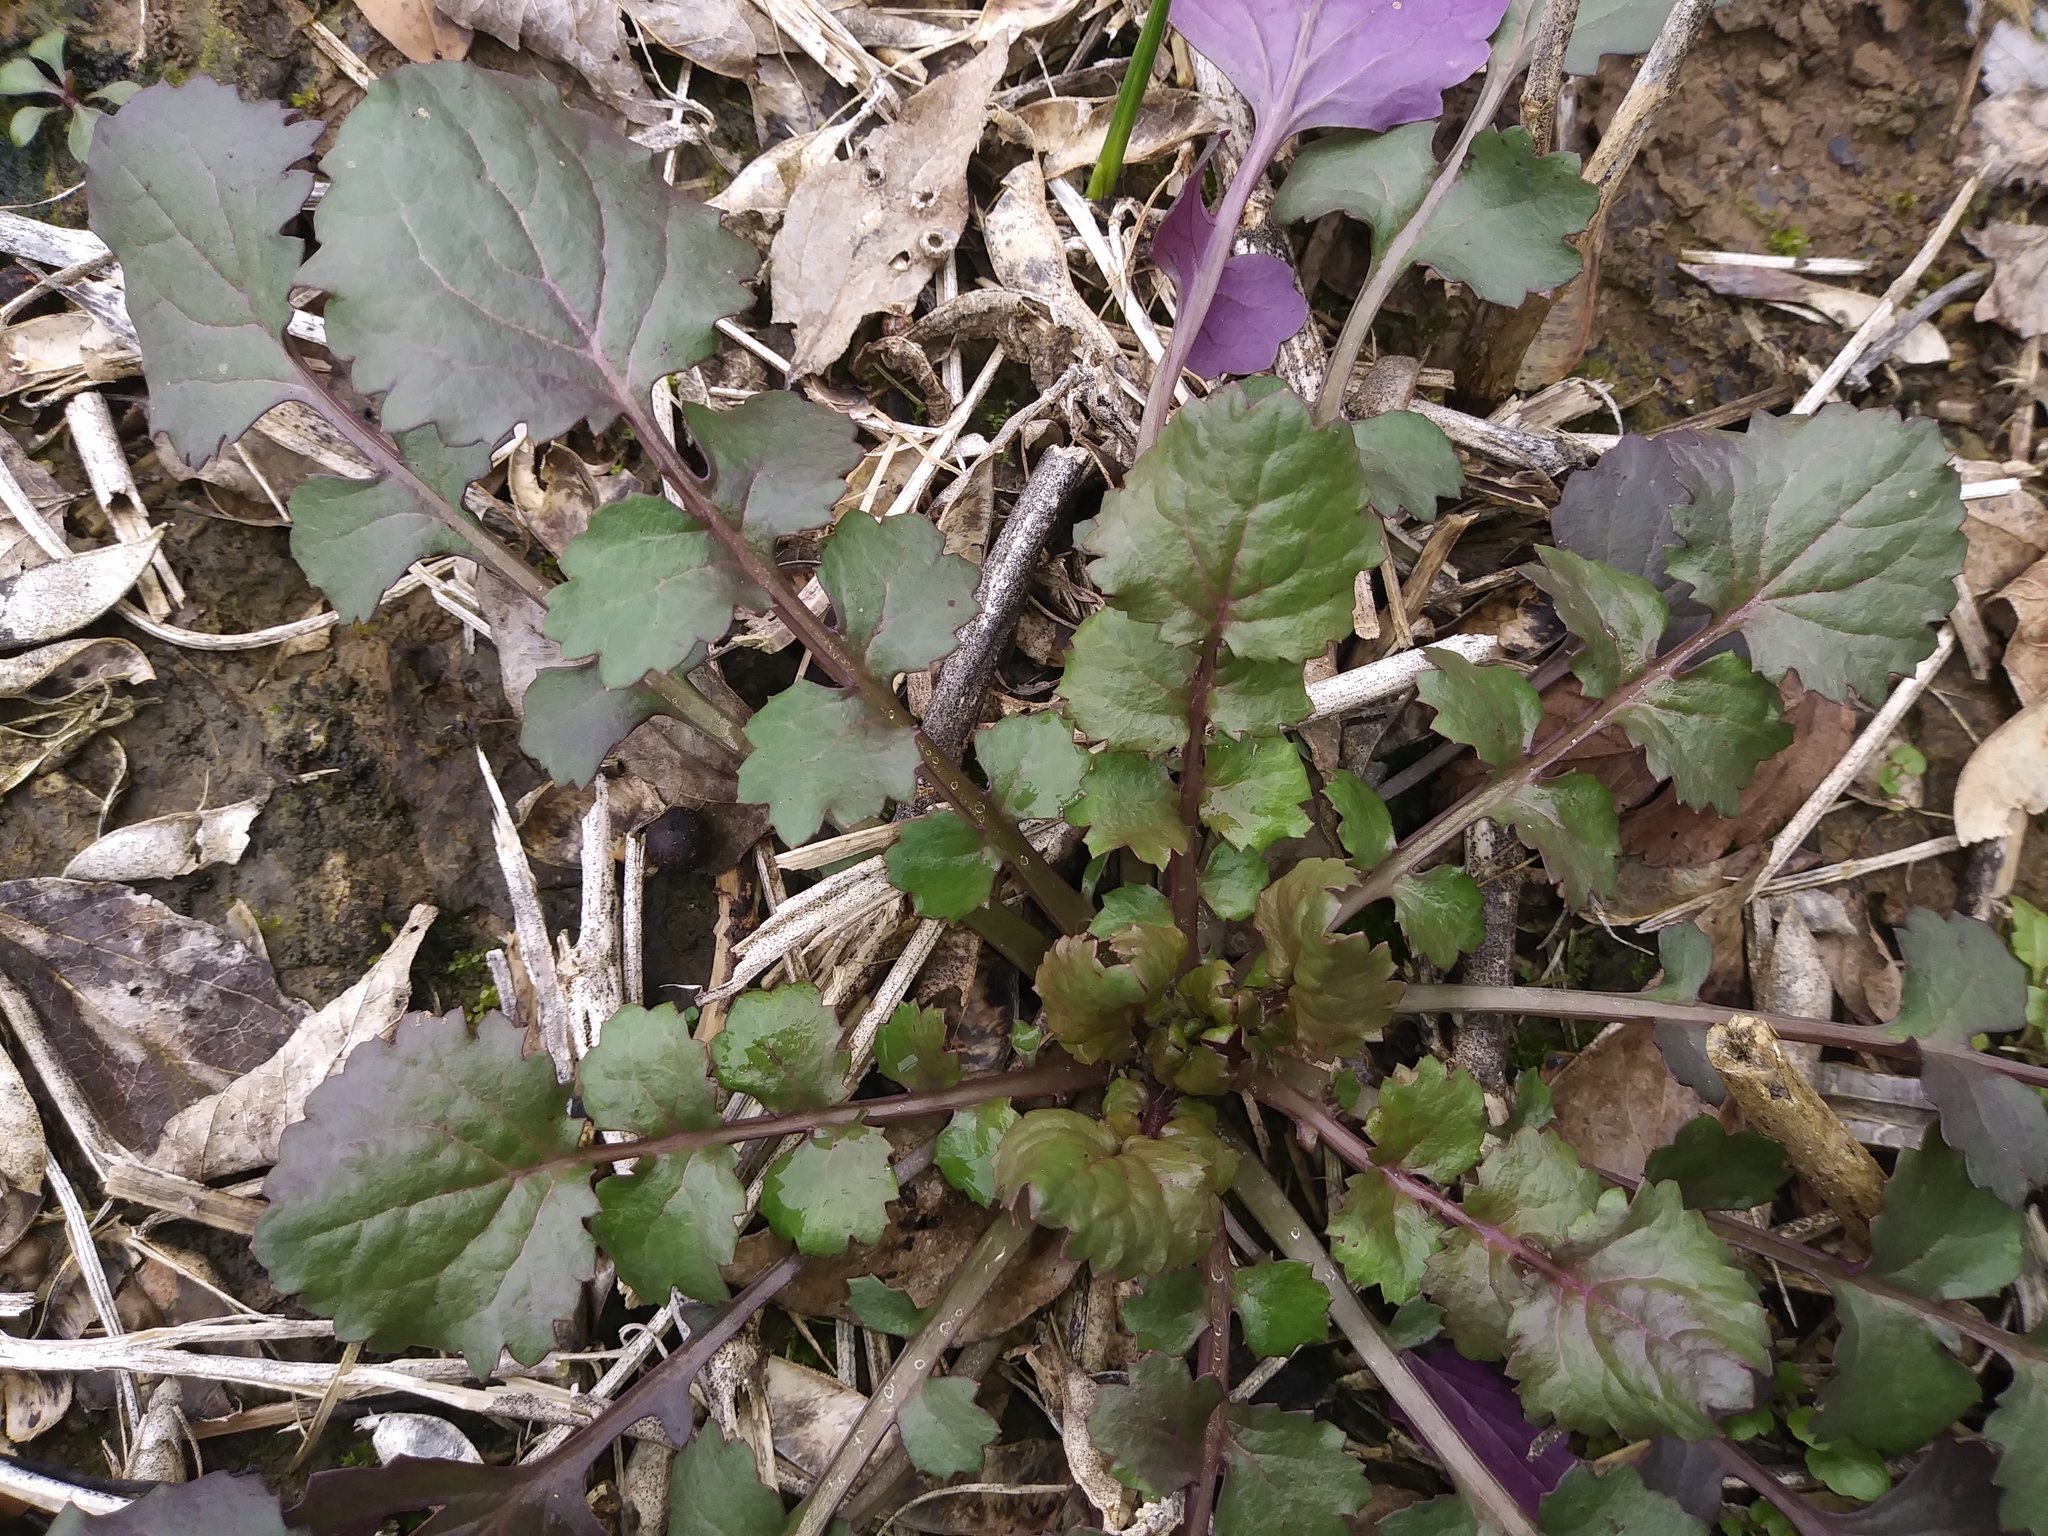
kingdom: Plantae
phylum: Tracheophyta
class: Magnoliopsida
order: Asterales
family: Asteraceae
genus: Packera
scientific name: Packera glabella
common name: Butterweed
